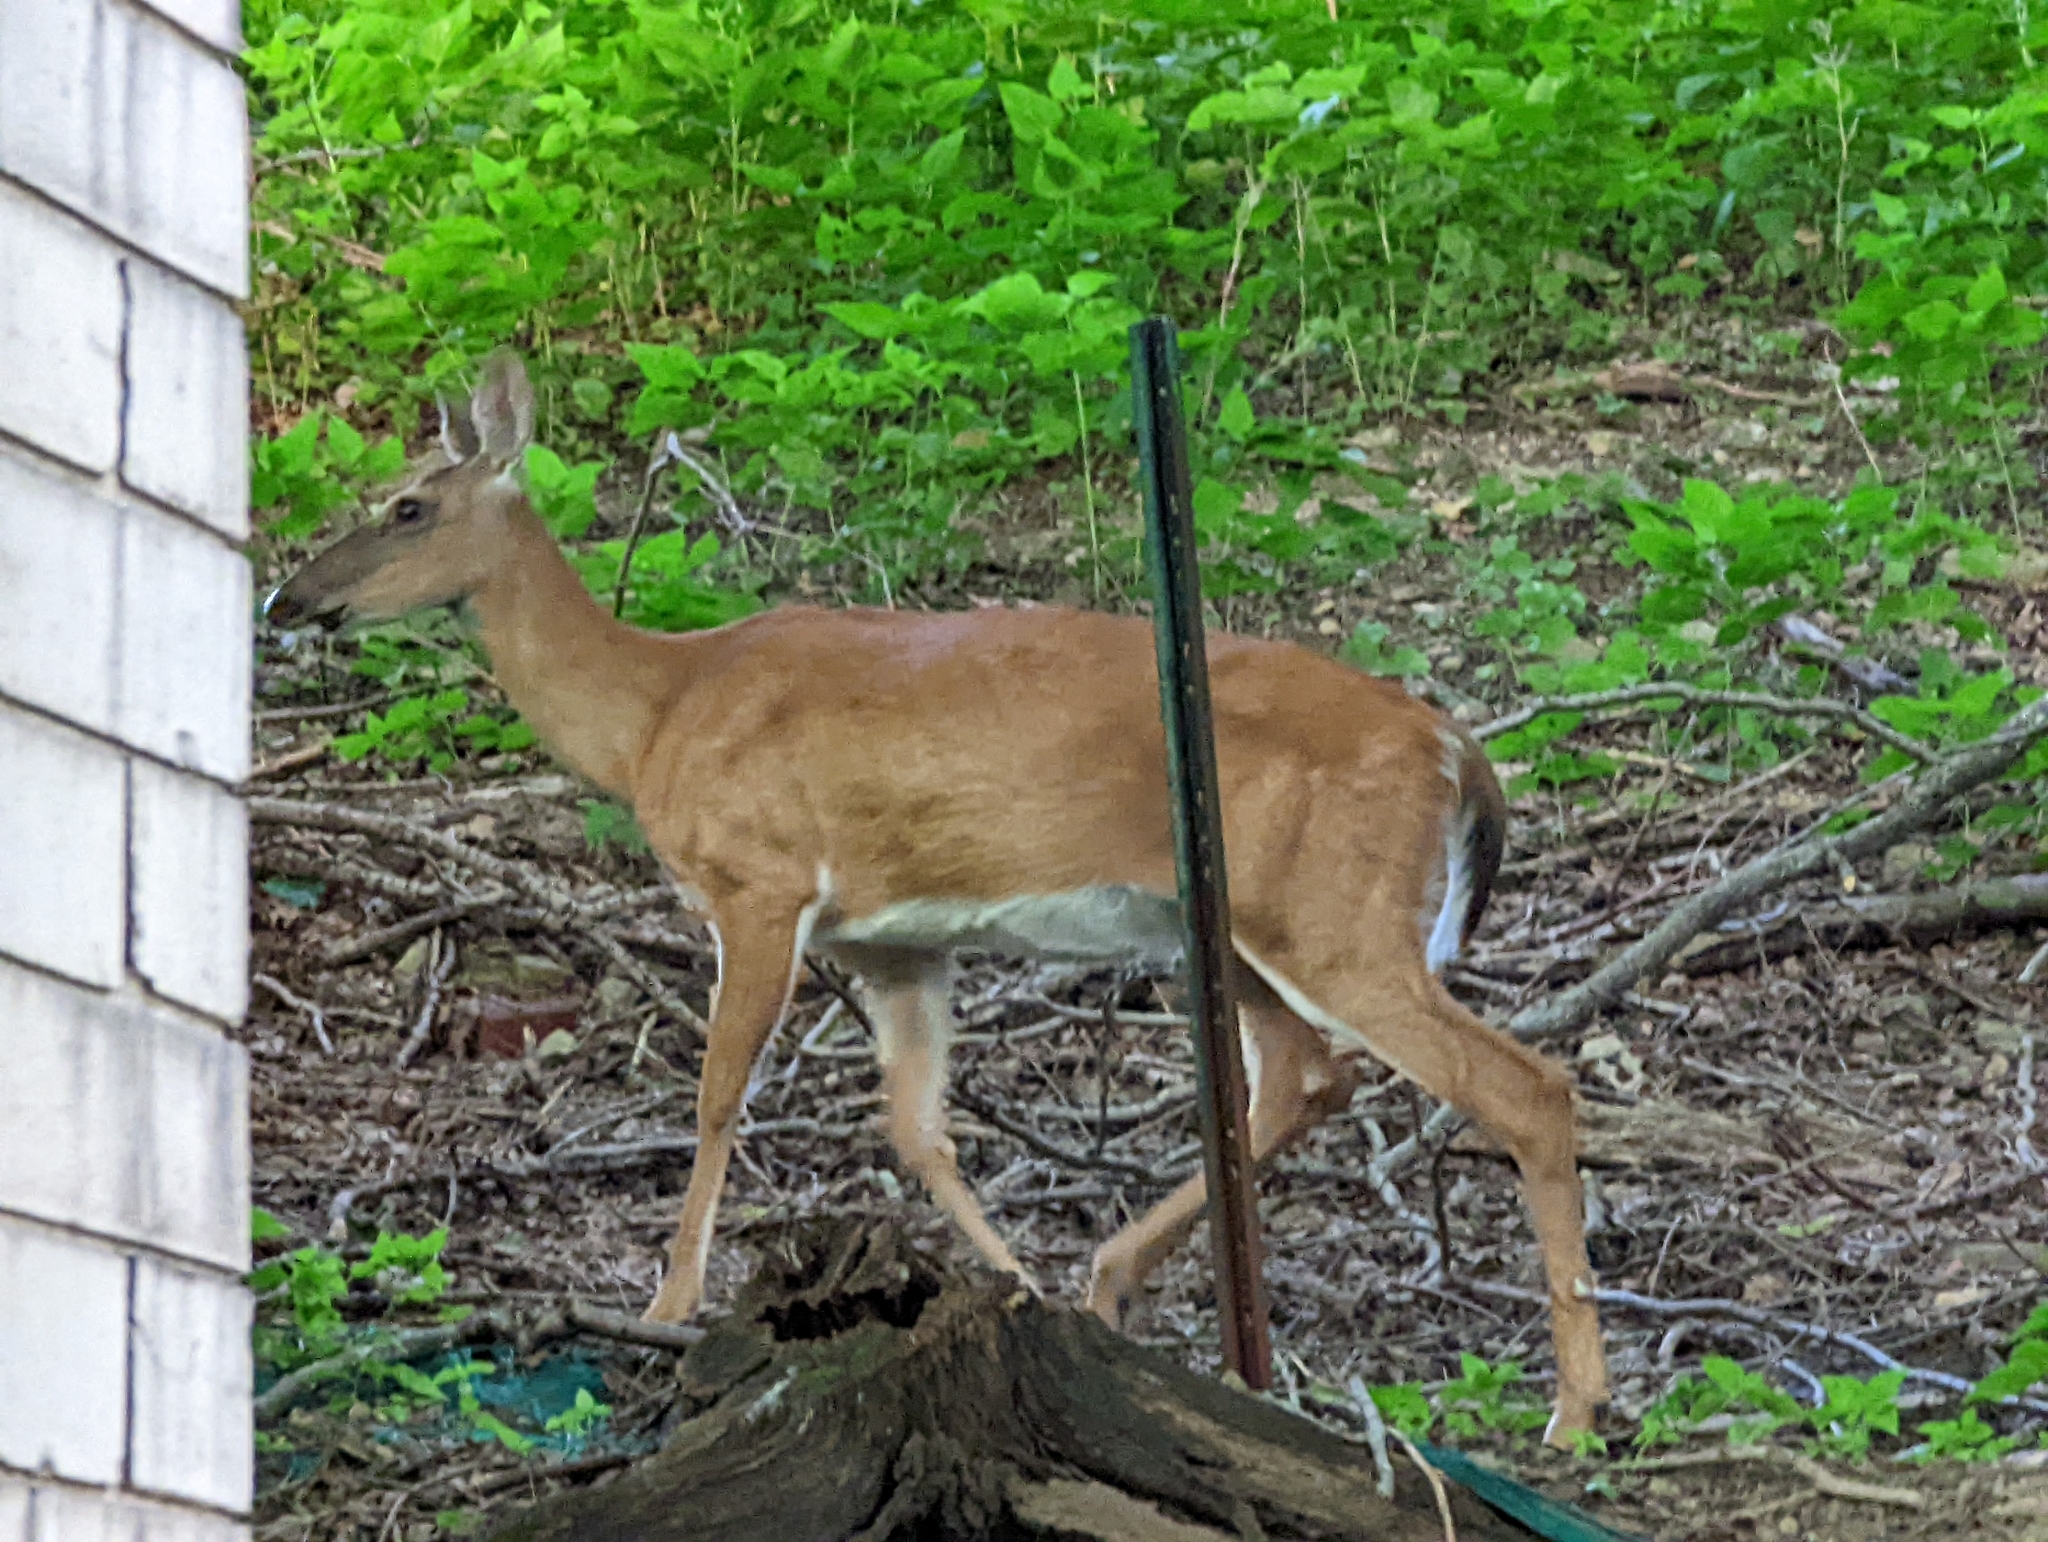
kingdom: Animalia
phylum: Chordata
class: Mammalia
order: Artiodactyla
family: Cervidae
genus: Odocoileus
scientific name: Odocoileus virginianus
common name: White-tailed deer
